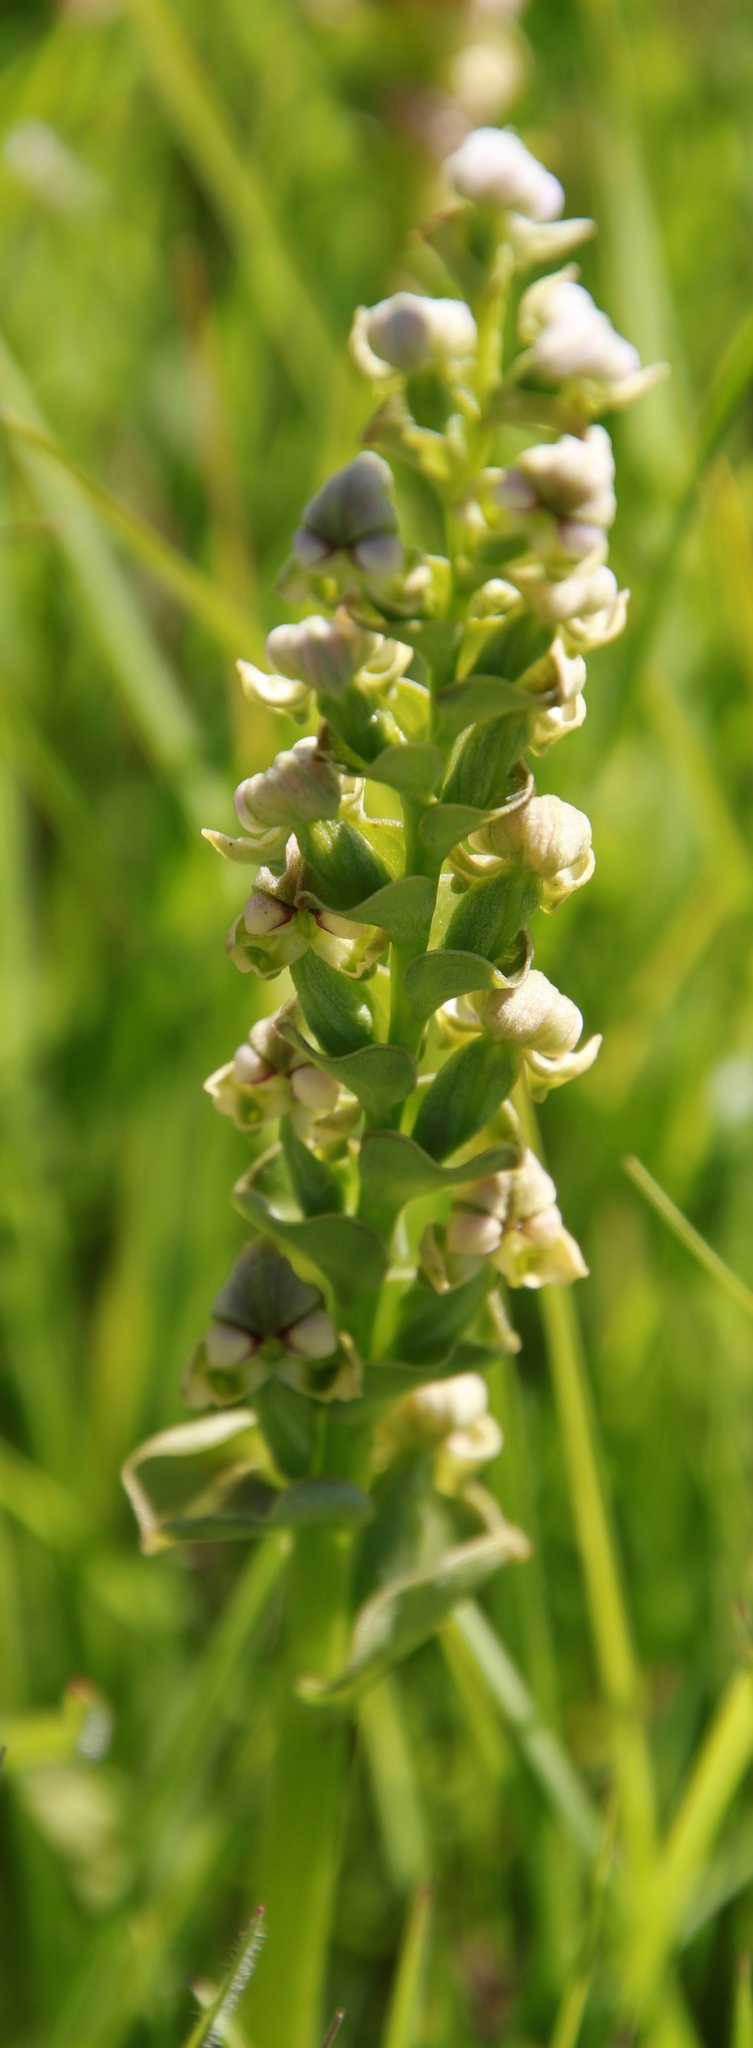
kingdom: Plantae
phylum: Tracheophyta
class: Liliopsida
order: Asparagales
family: Orchidaceae
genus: Disperis
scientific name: Disperis cardiophora
